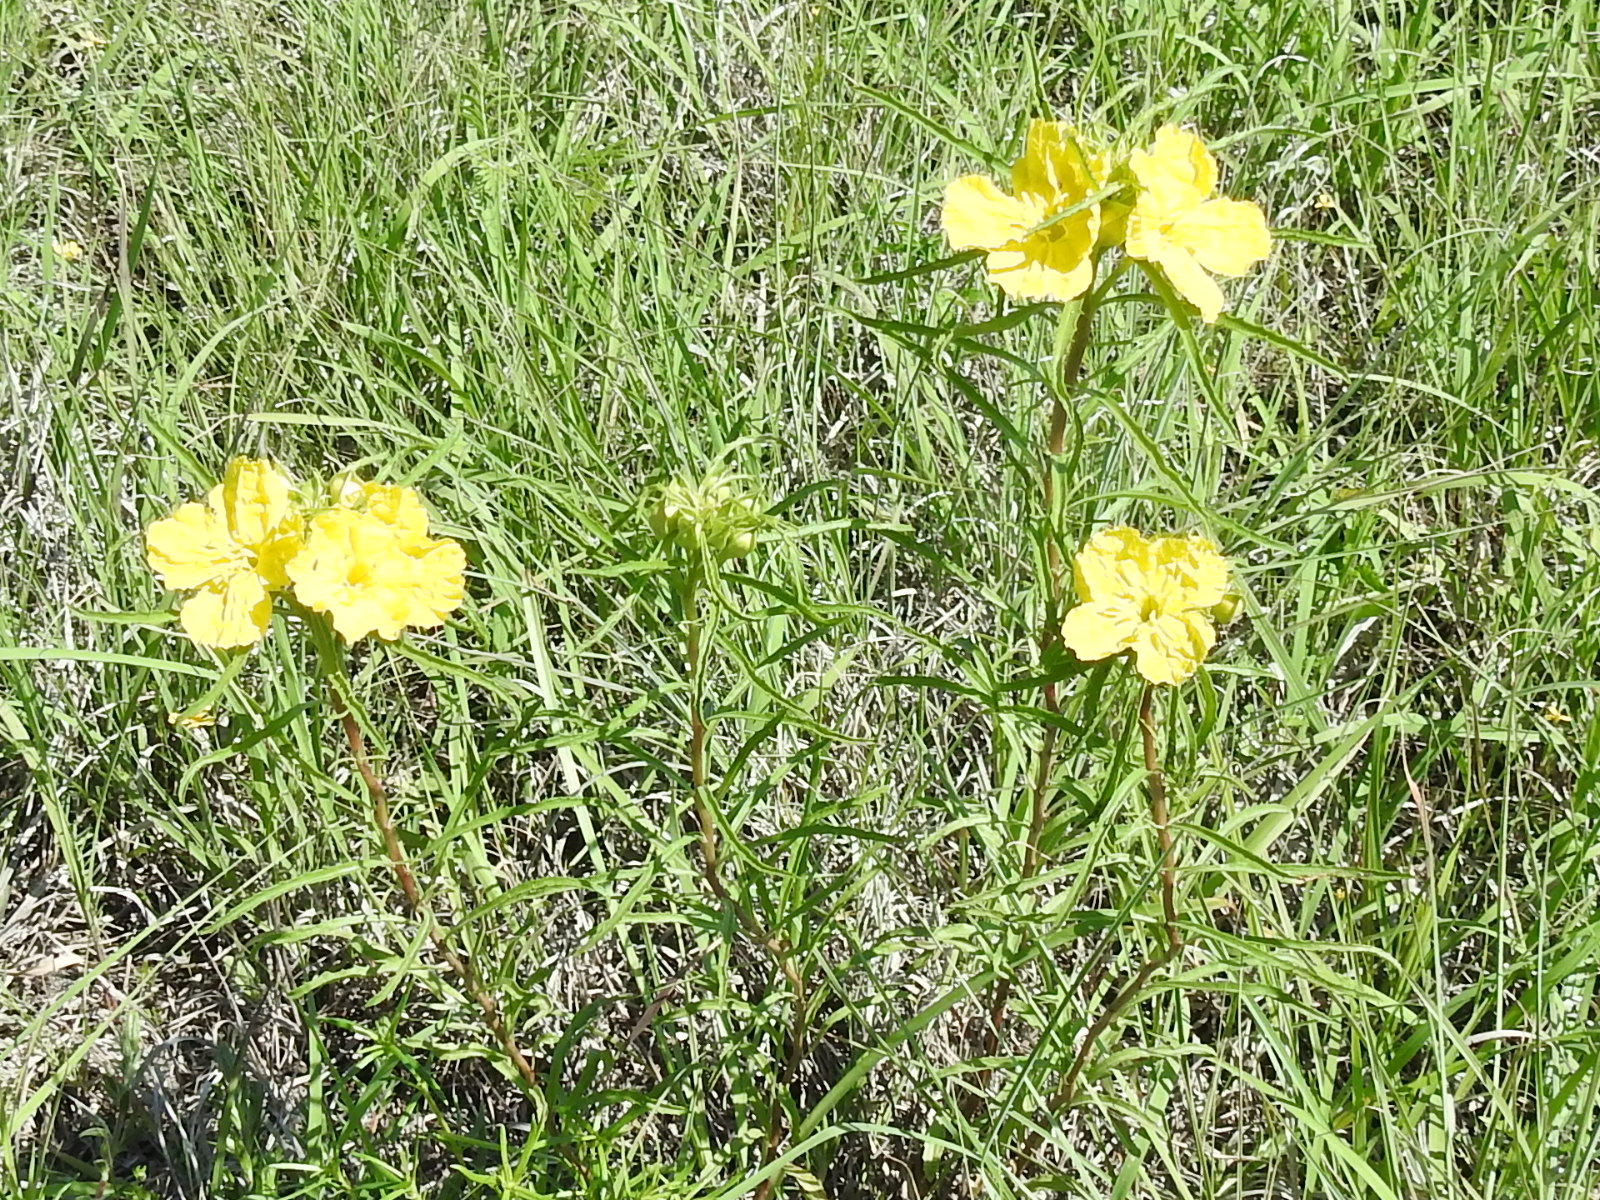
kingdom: Plantae
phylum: Tracheophyta
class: Magnoliopsida
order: Myrtales
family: Onagraceae
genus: Oenothera
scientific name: Oenothera
